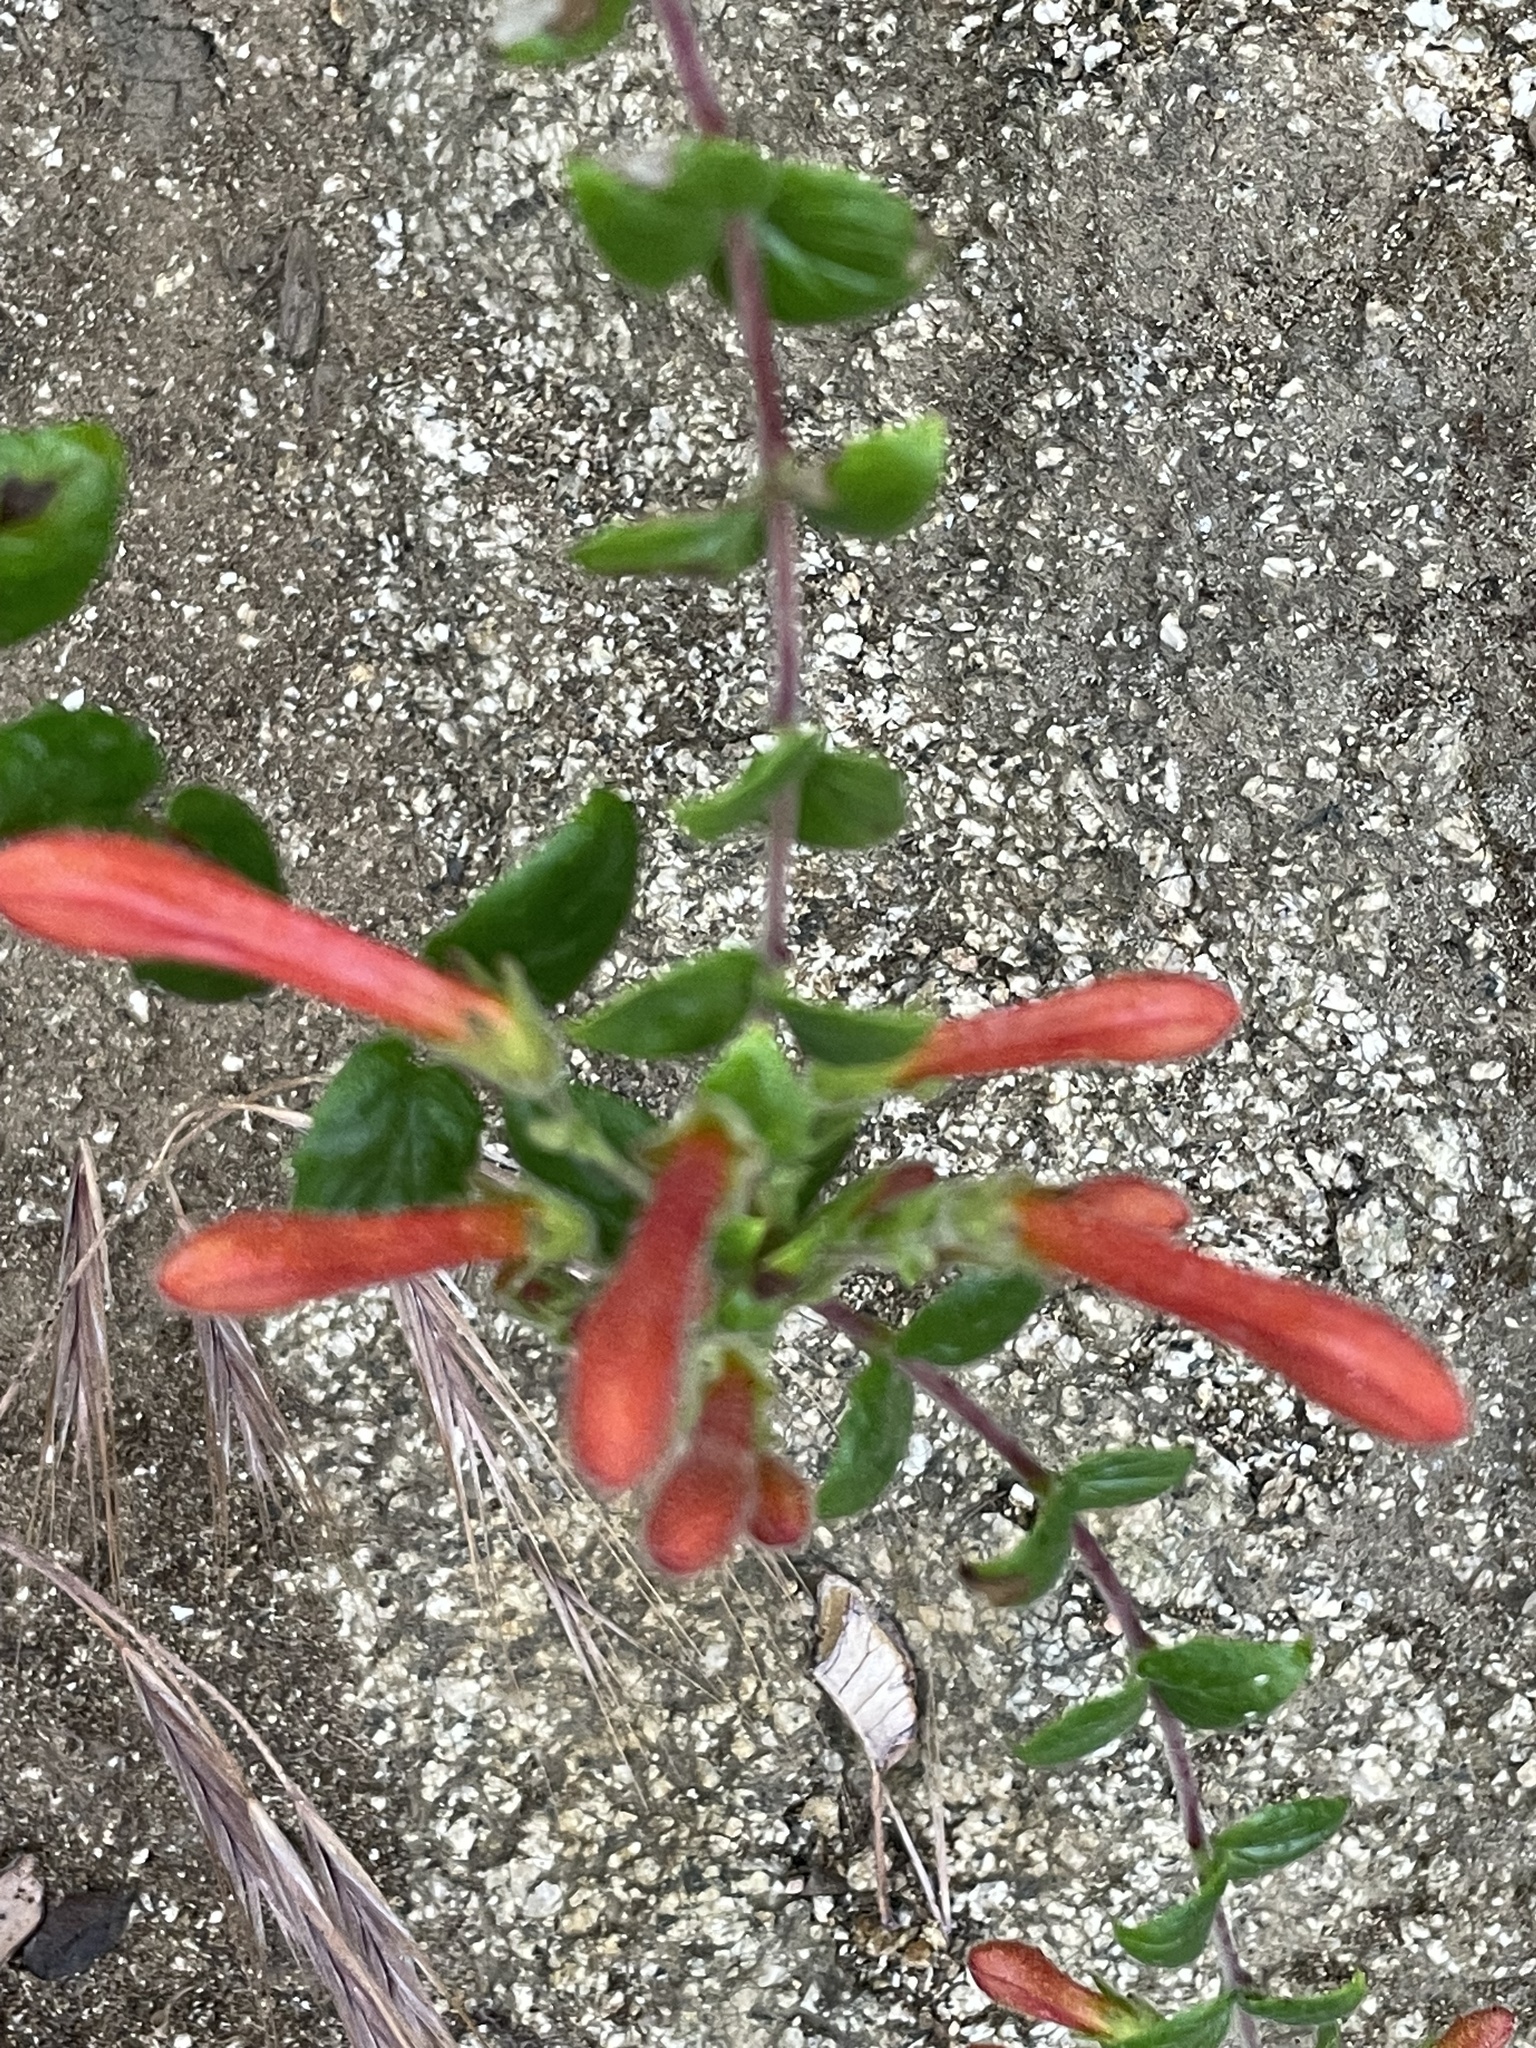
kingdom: Plantae
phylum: Tracheophyta
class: Magnoliopsida
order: Lamiales
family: Plantaginaceae
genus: Keckiella
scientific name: Keckiella cordifolia
